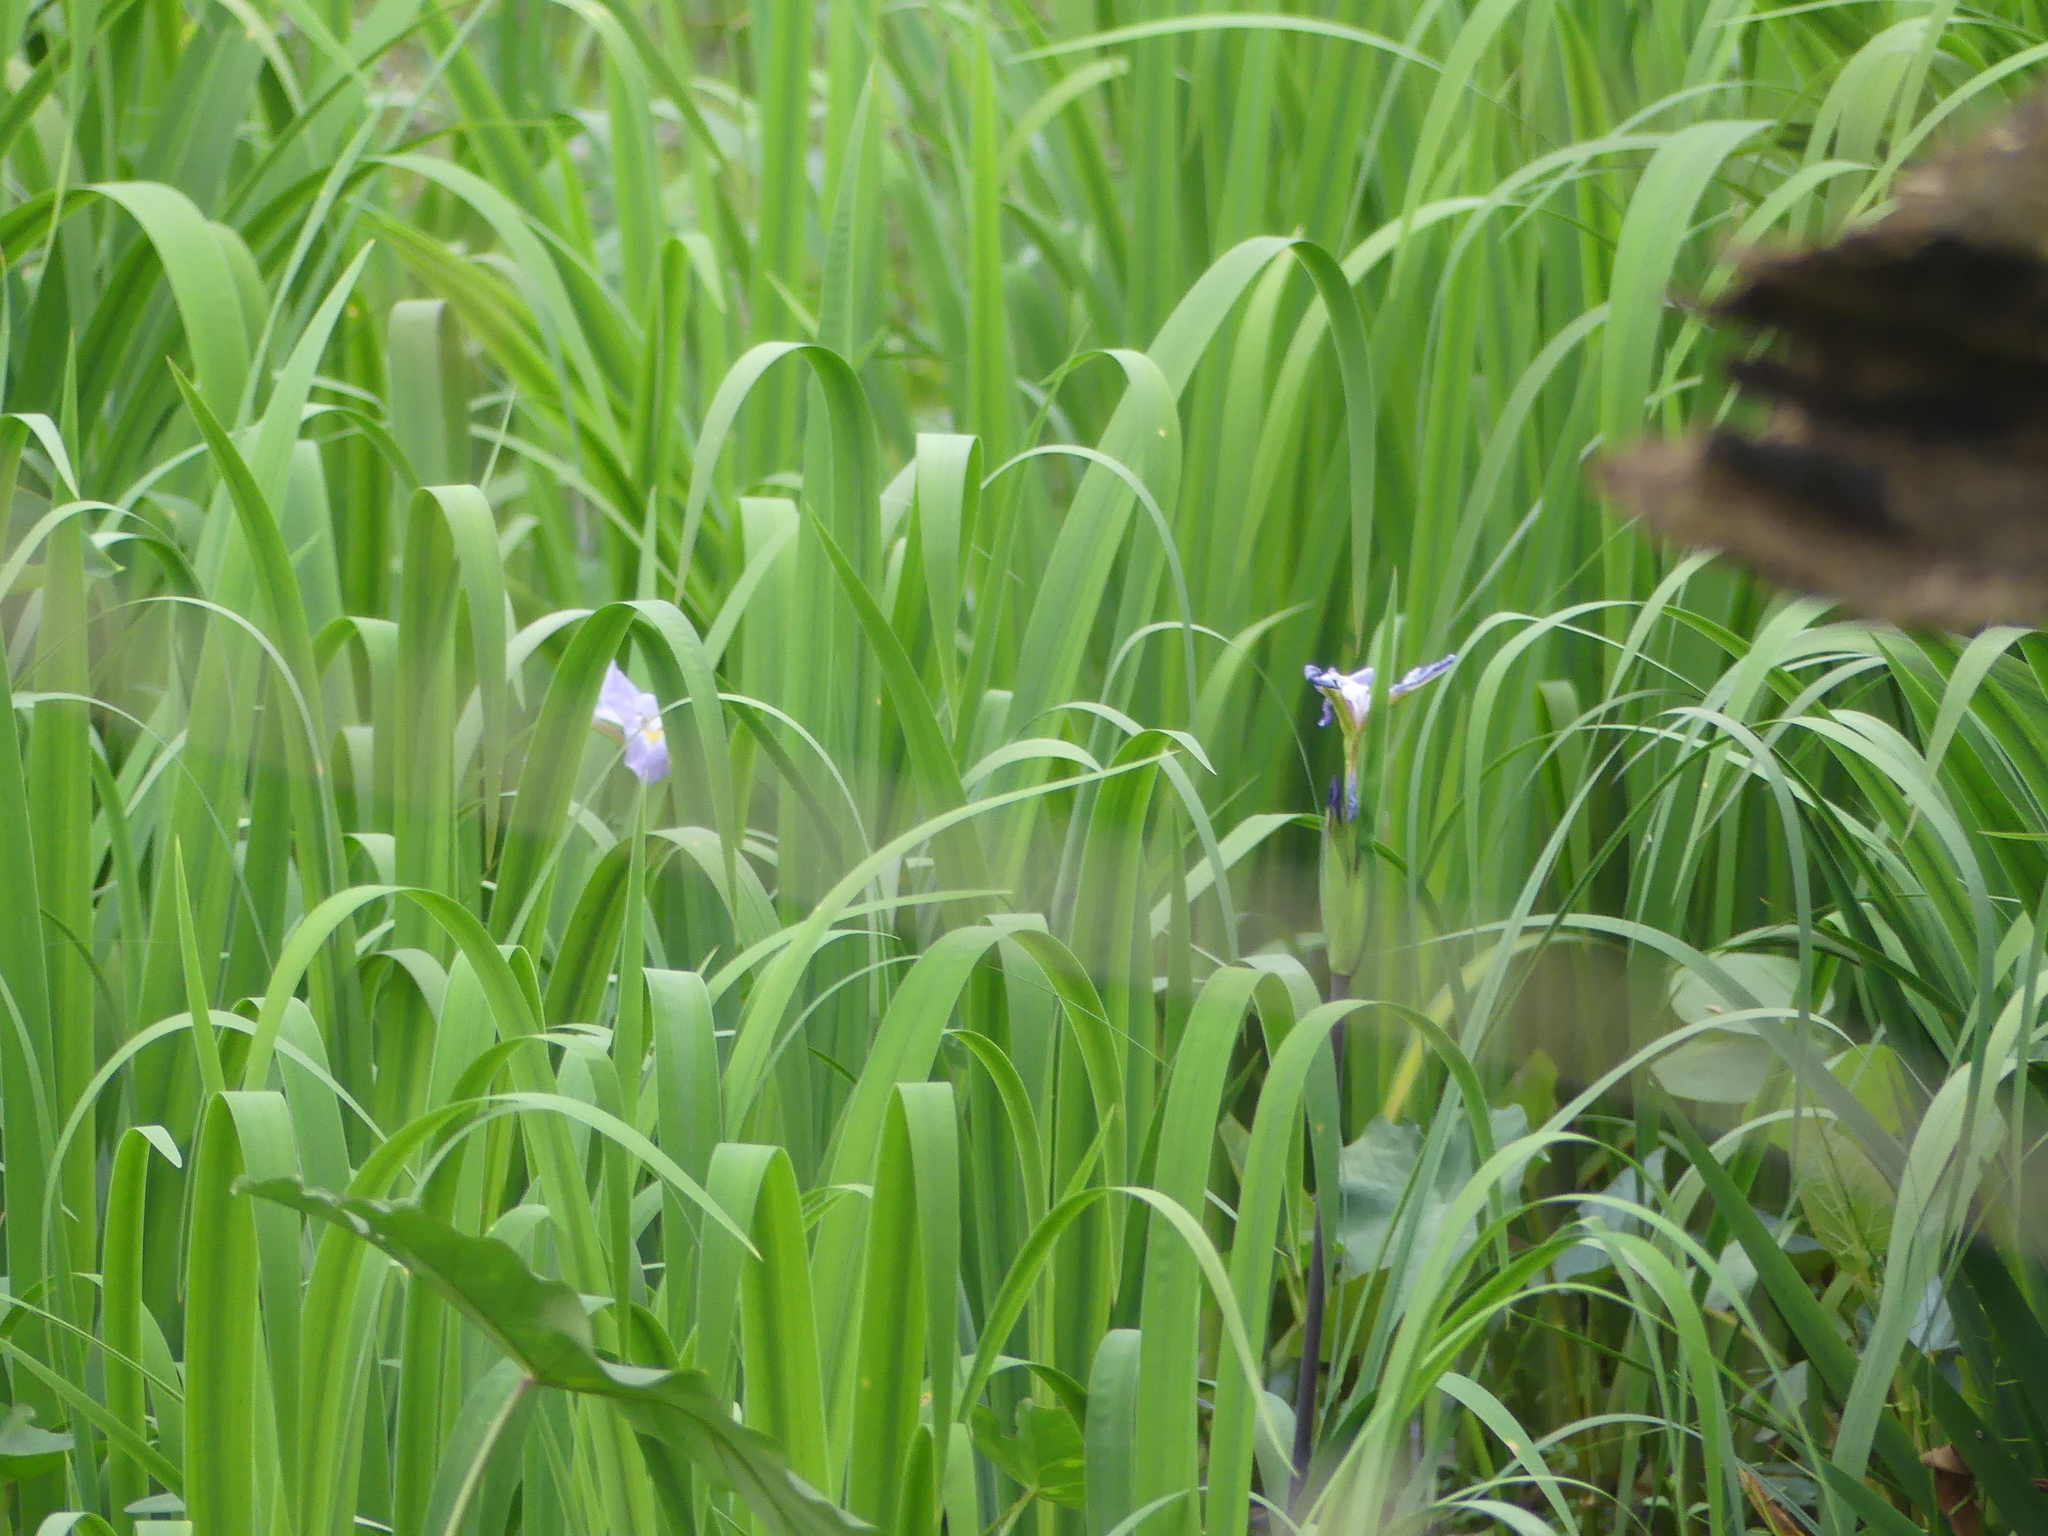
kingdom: Plantae
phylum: Tracheophyta
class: Liliopsida
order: Asparagales
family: Iridaceae
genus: Iris
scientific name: Iris virginica
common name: Southern blue flag
